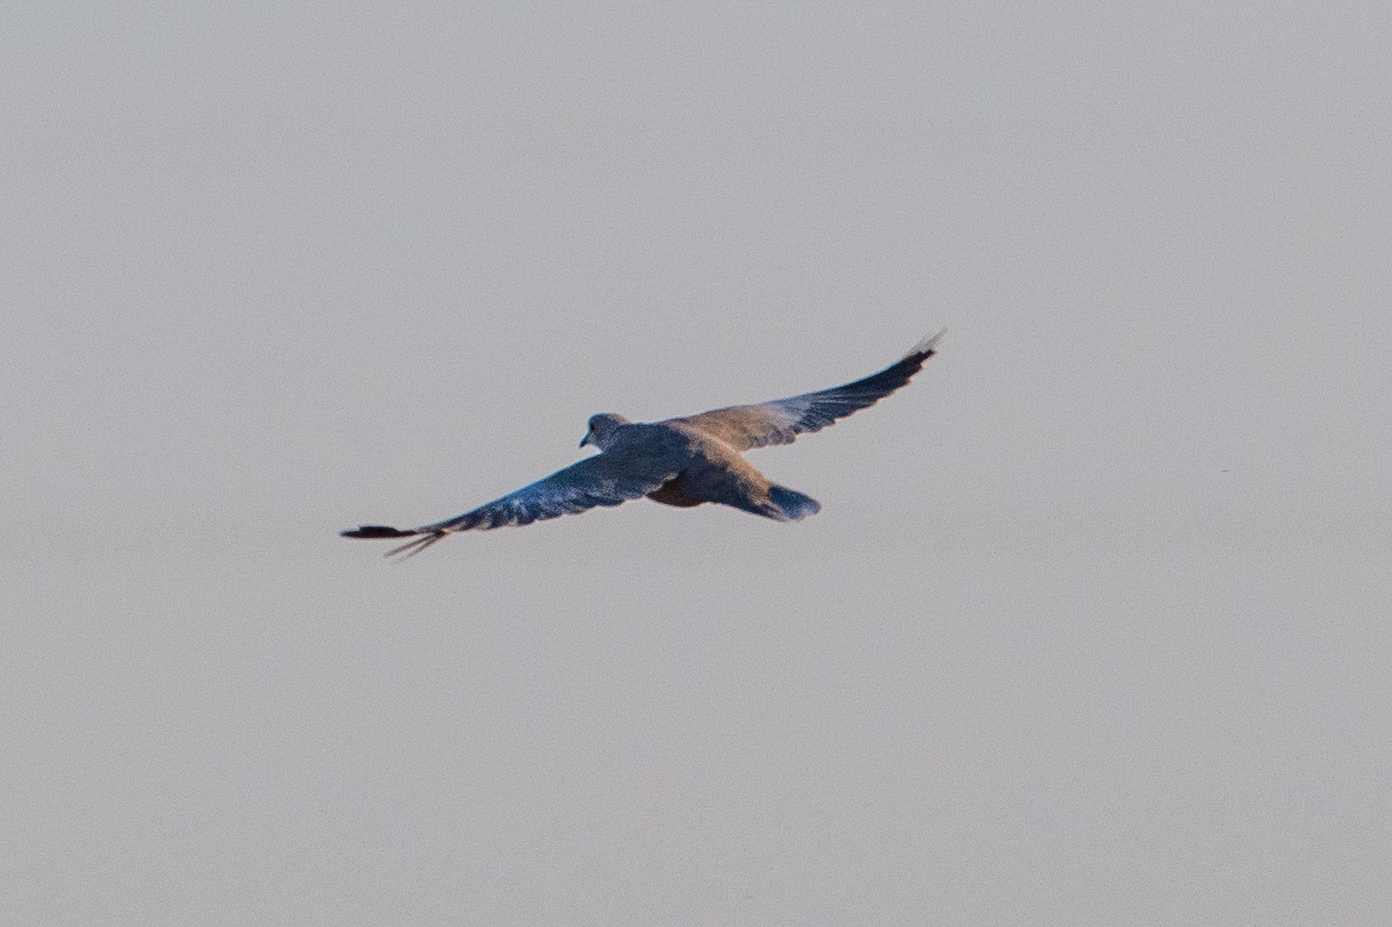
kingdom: Animalia
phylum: Chordata
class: Aves
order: Columbiformes
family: Columbidae
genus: Streptopelia
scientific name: Streptopelia decaocto
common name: Eurasian collared dove
